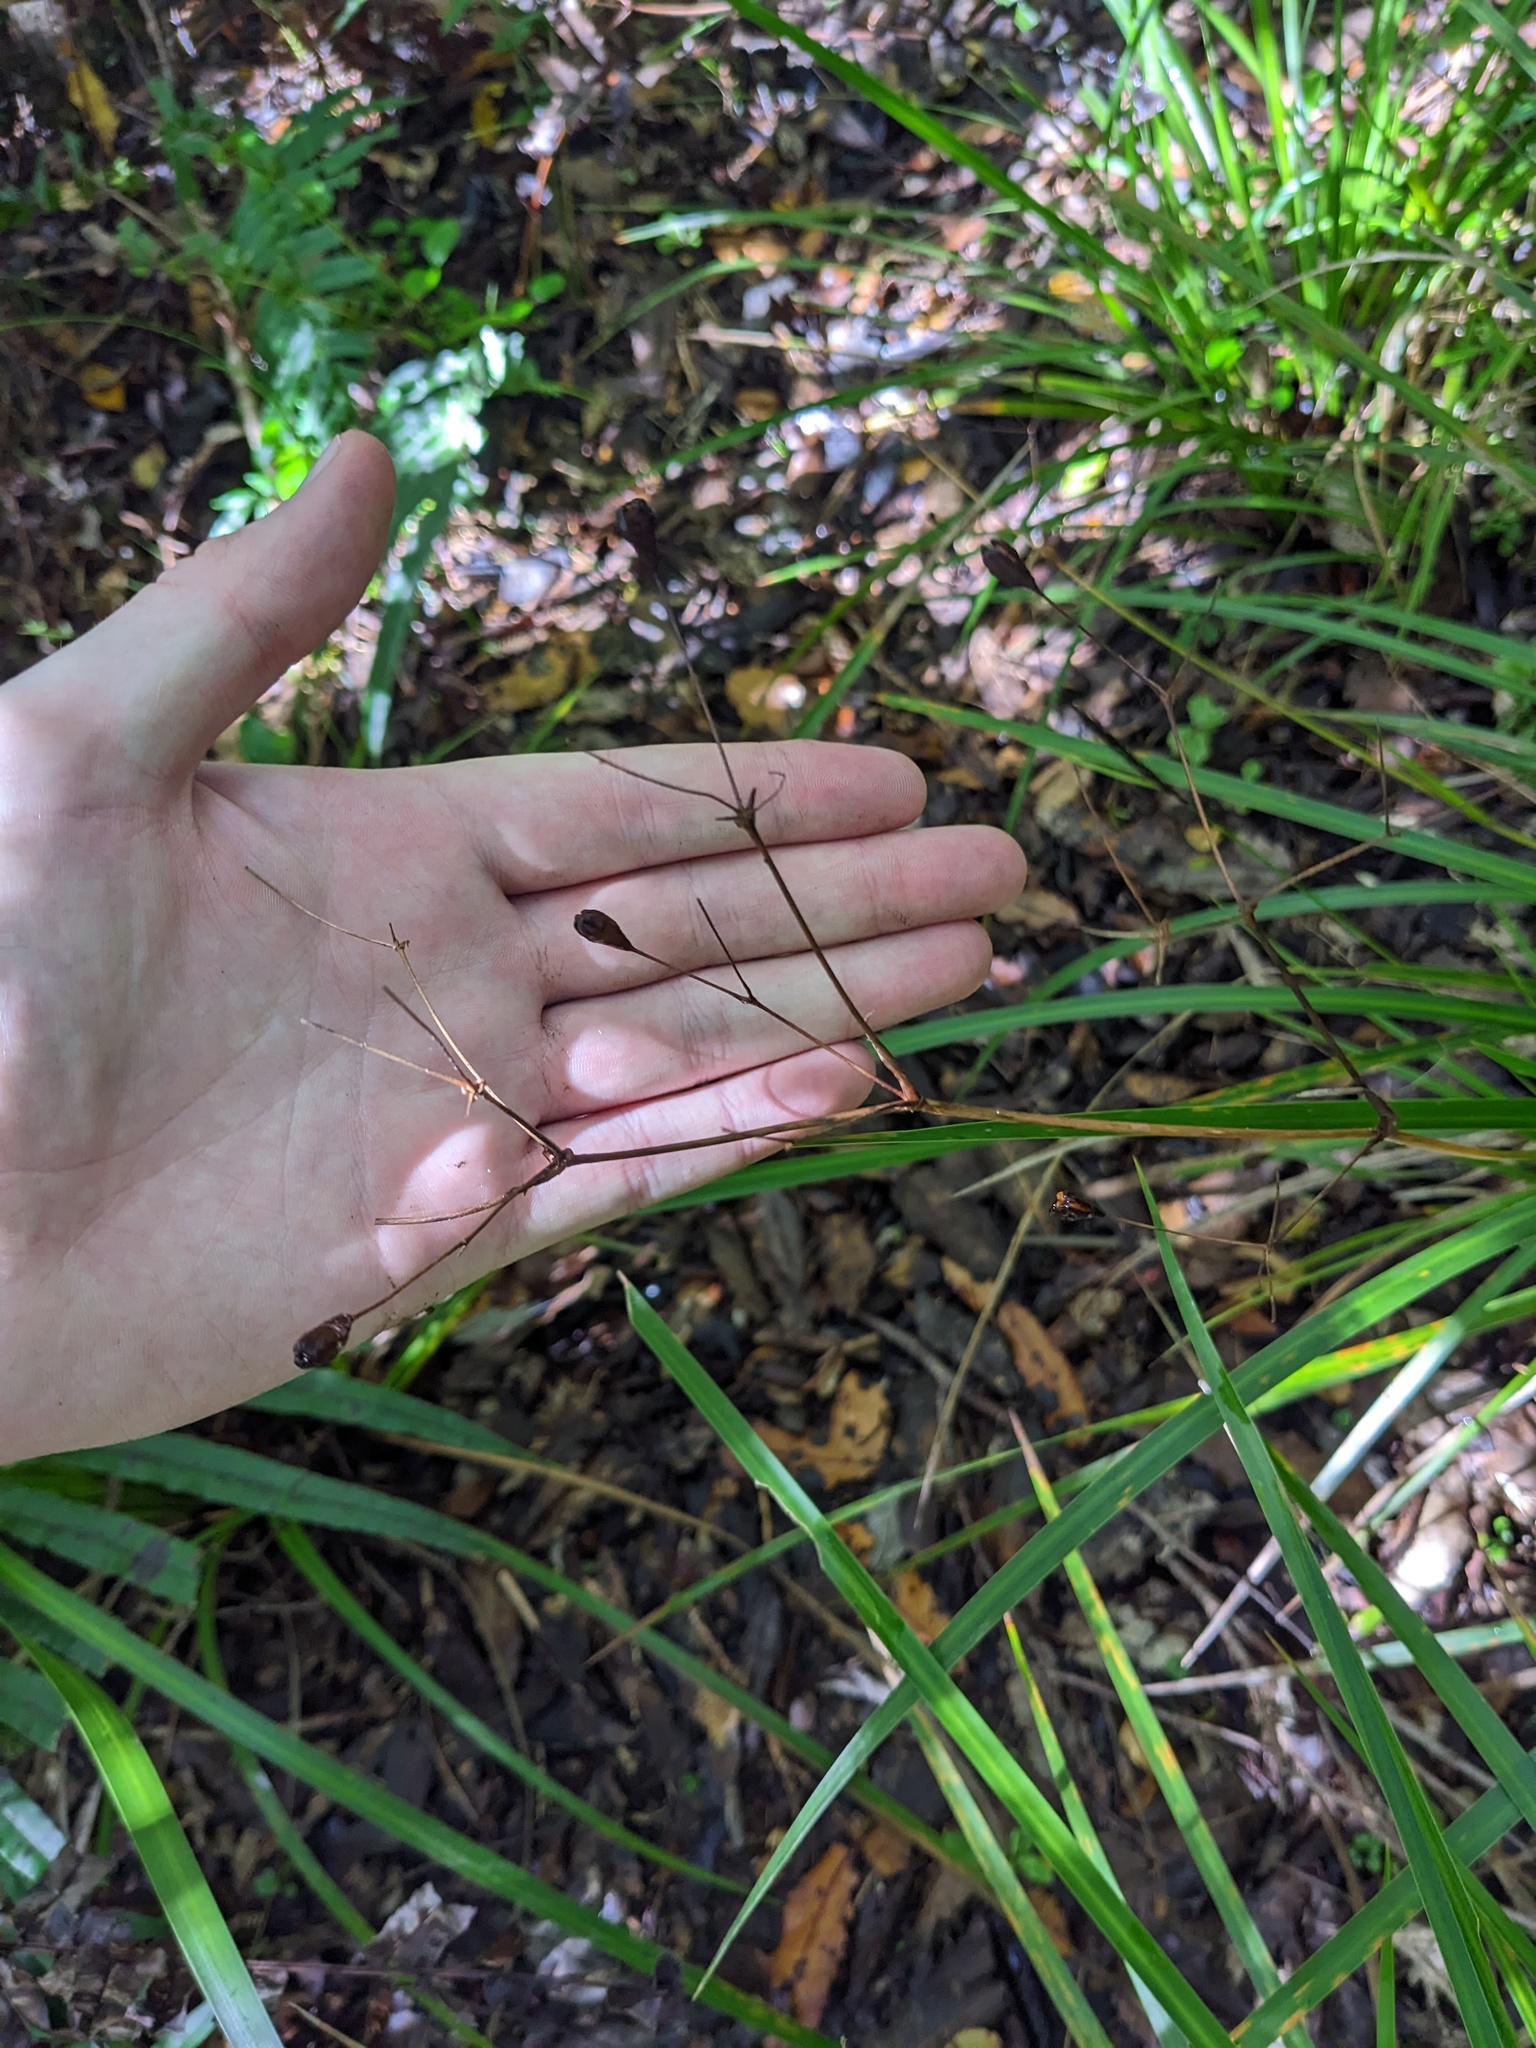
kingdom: Plantae
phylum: Tracheophyta
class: Liliopsida
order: Asparagales
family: Iridaceae
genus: Libertia
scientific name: Libertia grandiflora
